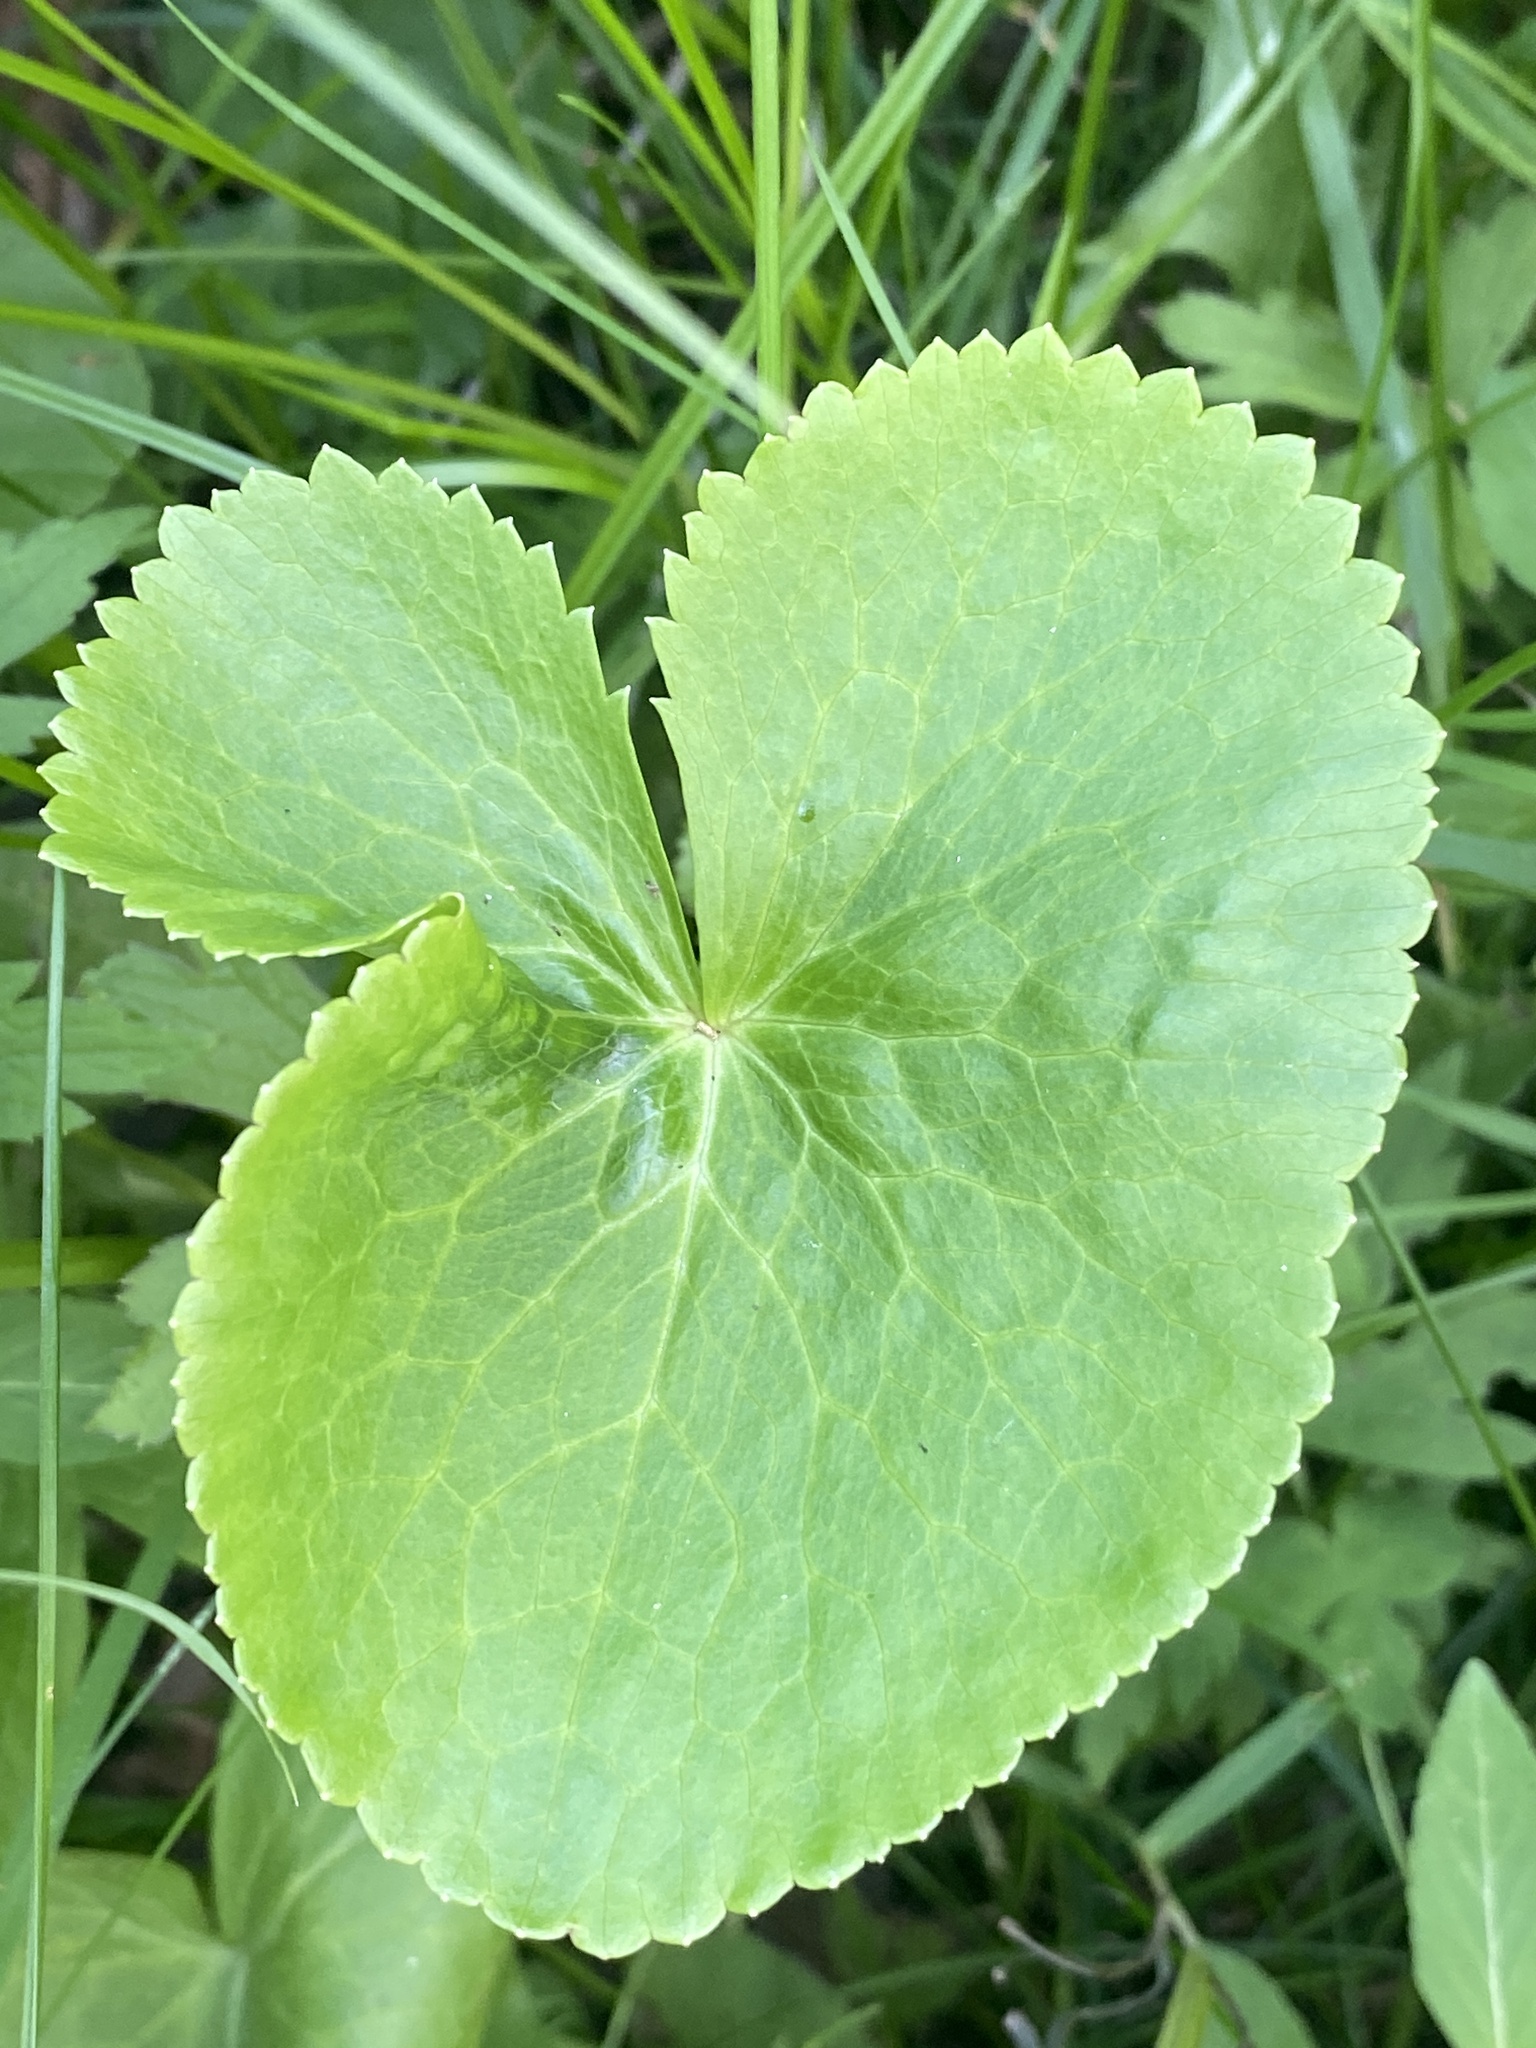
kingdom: Plantae
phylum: Tracheophyta
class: Magnoliopsida
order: Ranunculales
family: Ranunculaceae
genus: Caltha
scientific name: Caltha palustris
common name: Marsh marigold
